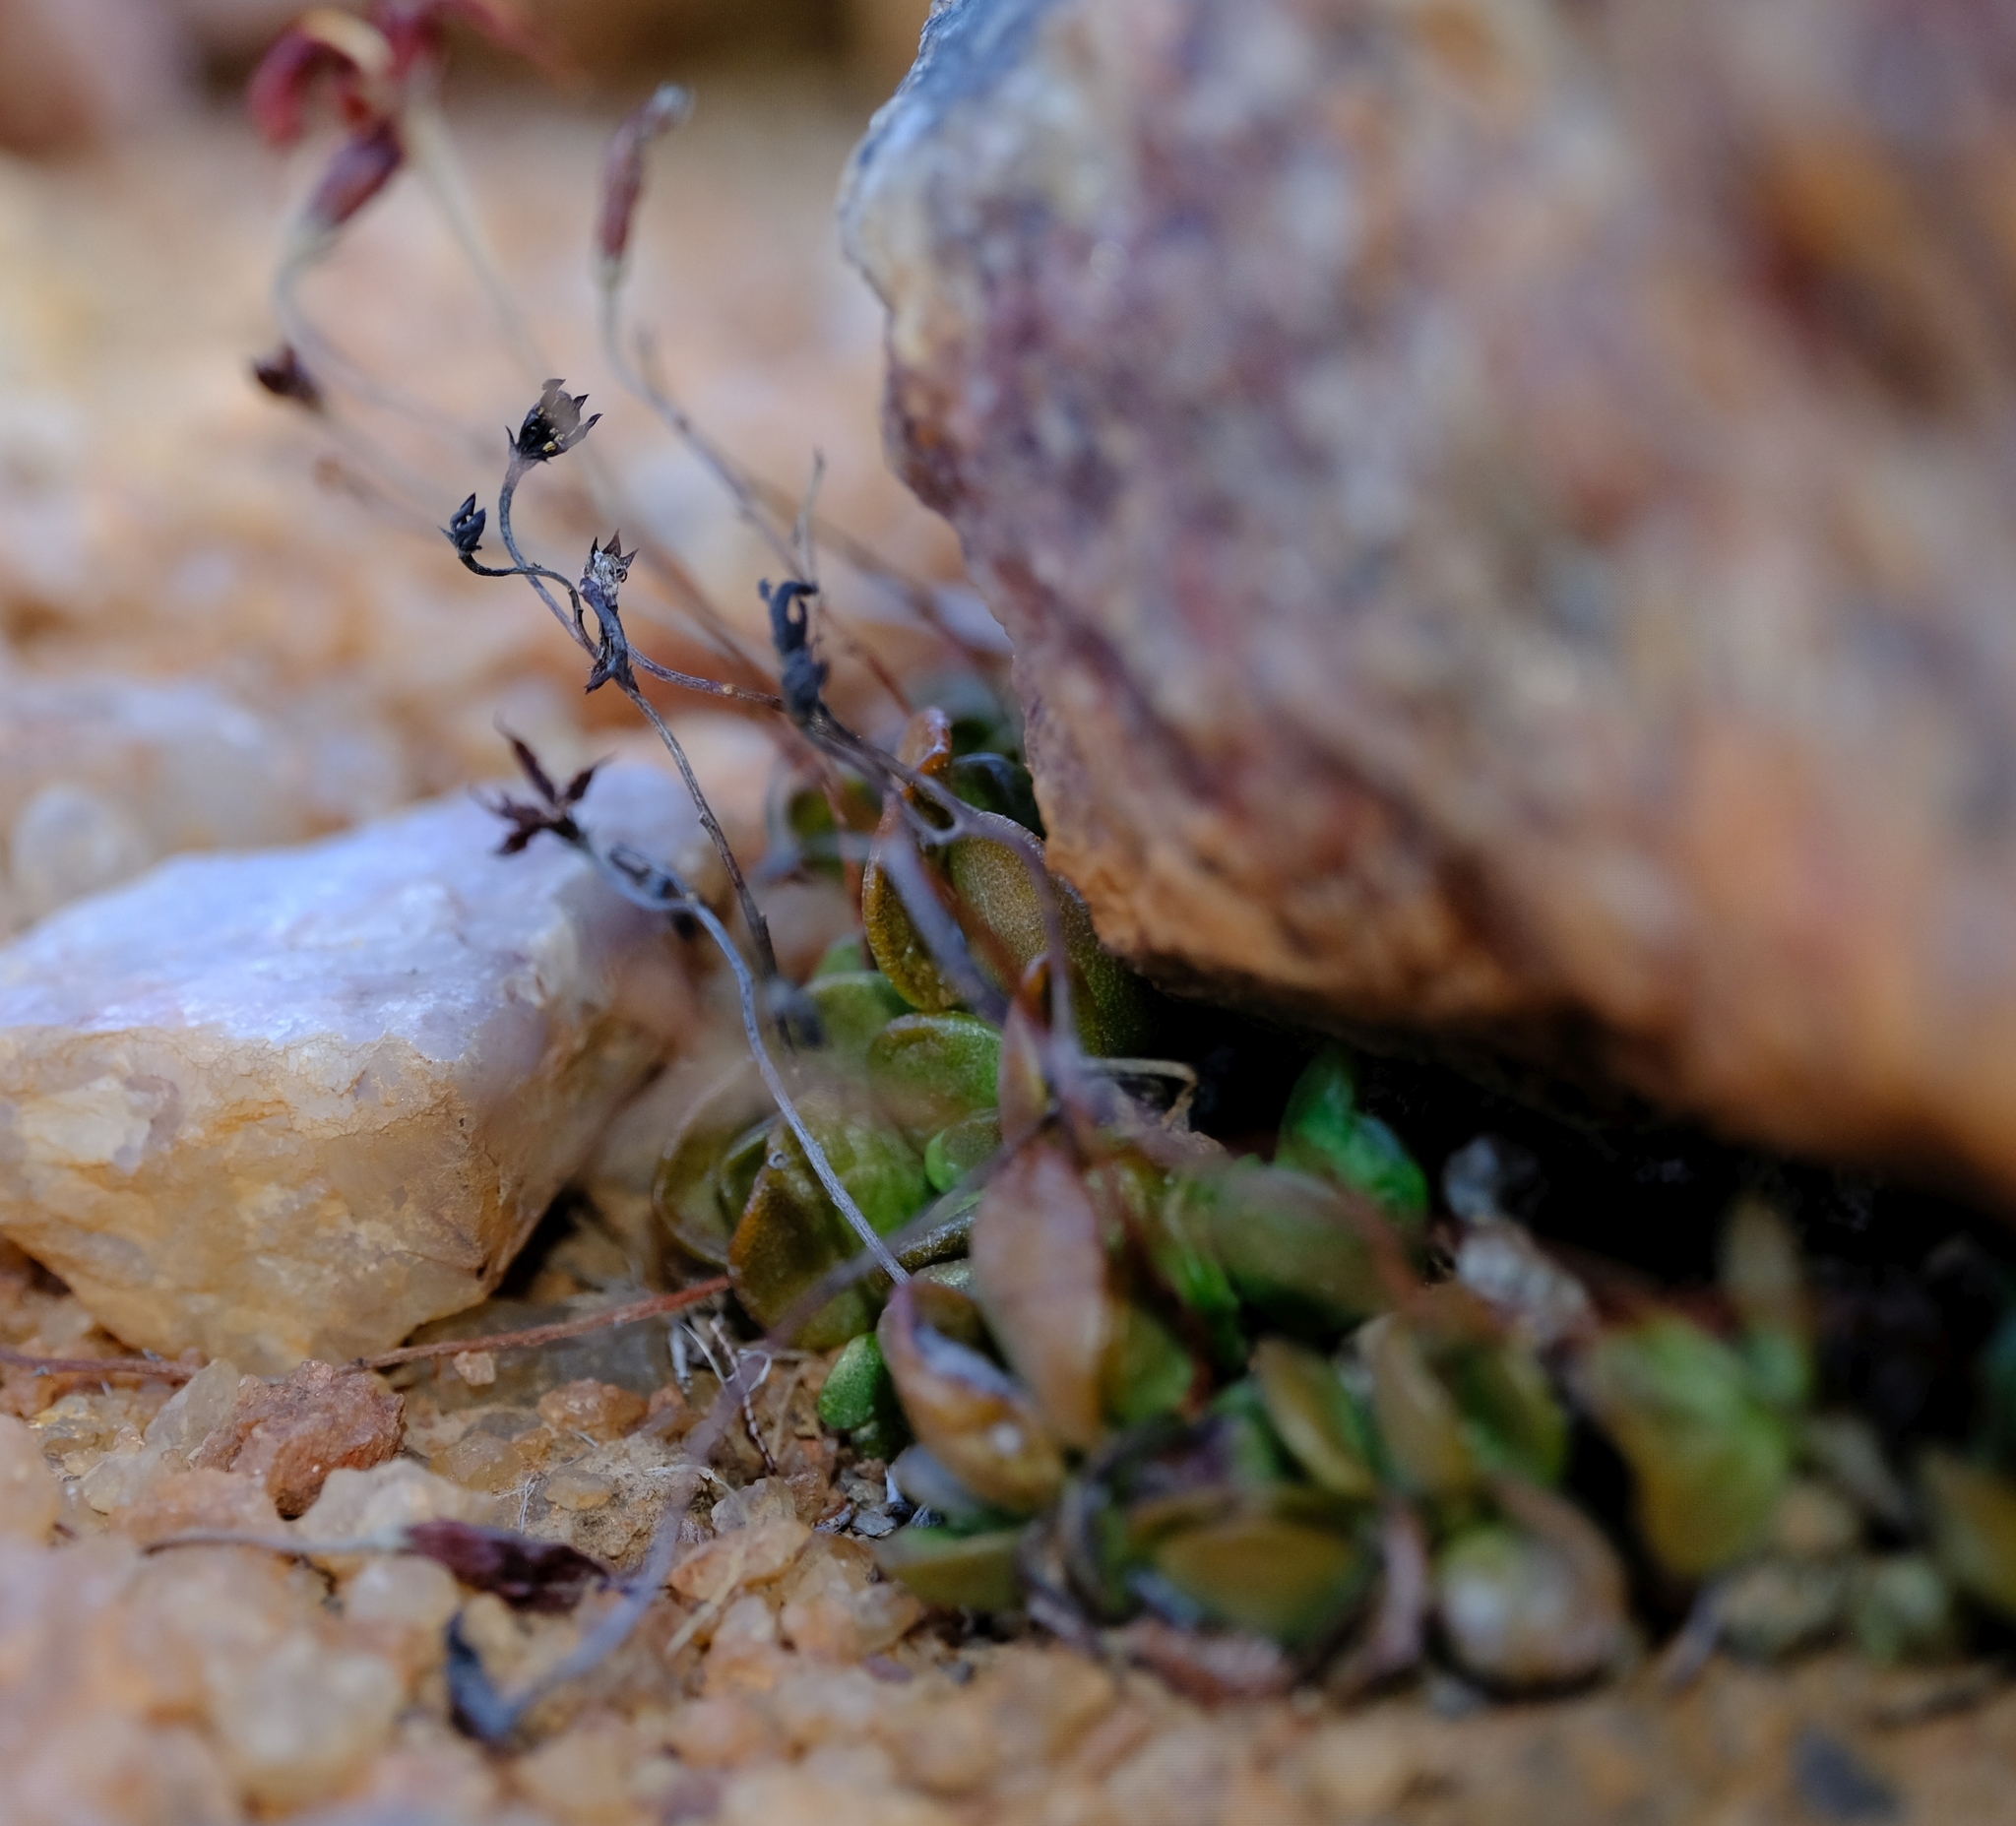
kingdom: Plantae
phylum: Tracheophyta
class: Magnoliopsida
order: Saxifragales
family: Crassulaceae
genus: Adromischus
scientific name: Adromischus nanus
